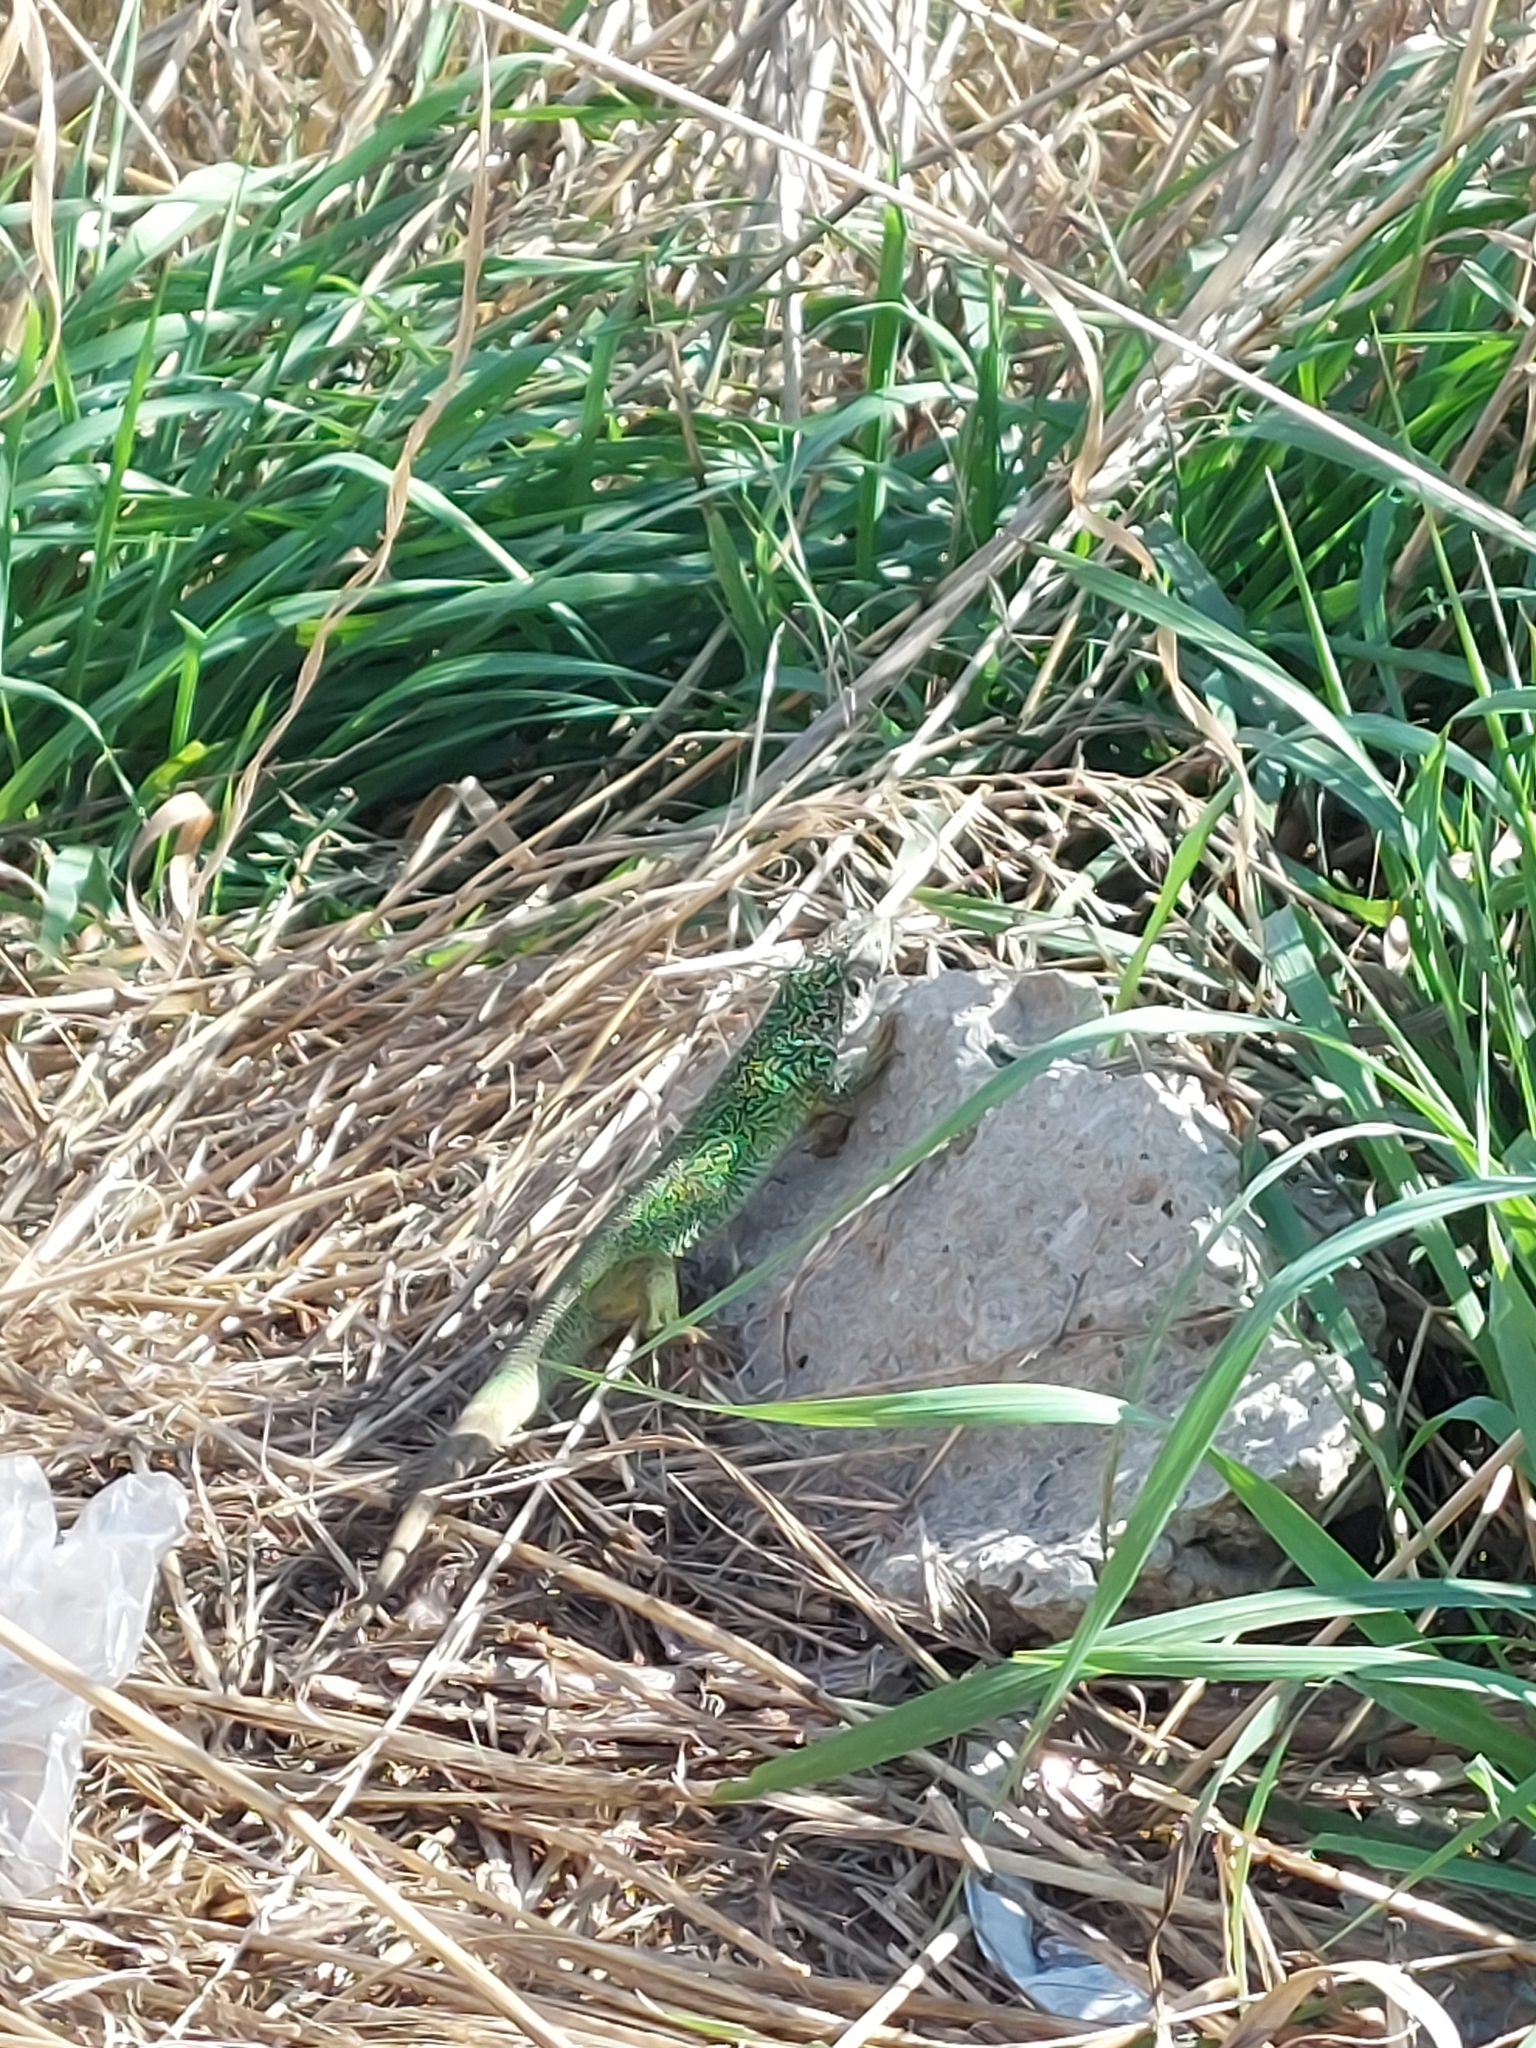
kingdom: Animalia
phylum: Chordata
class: Squamata
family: Lacertidae
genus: Lacerta
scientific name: Lacerta viridis
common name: European green lizard
